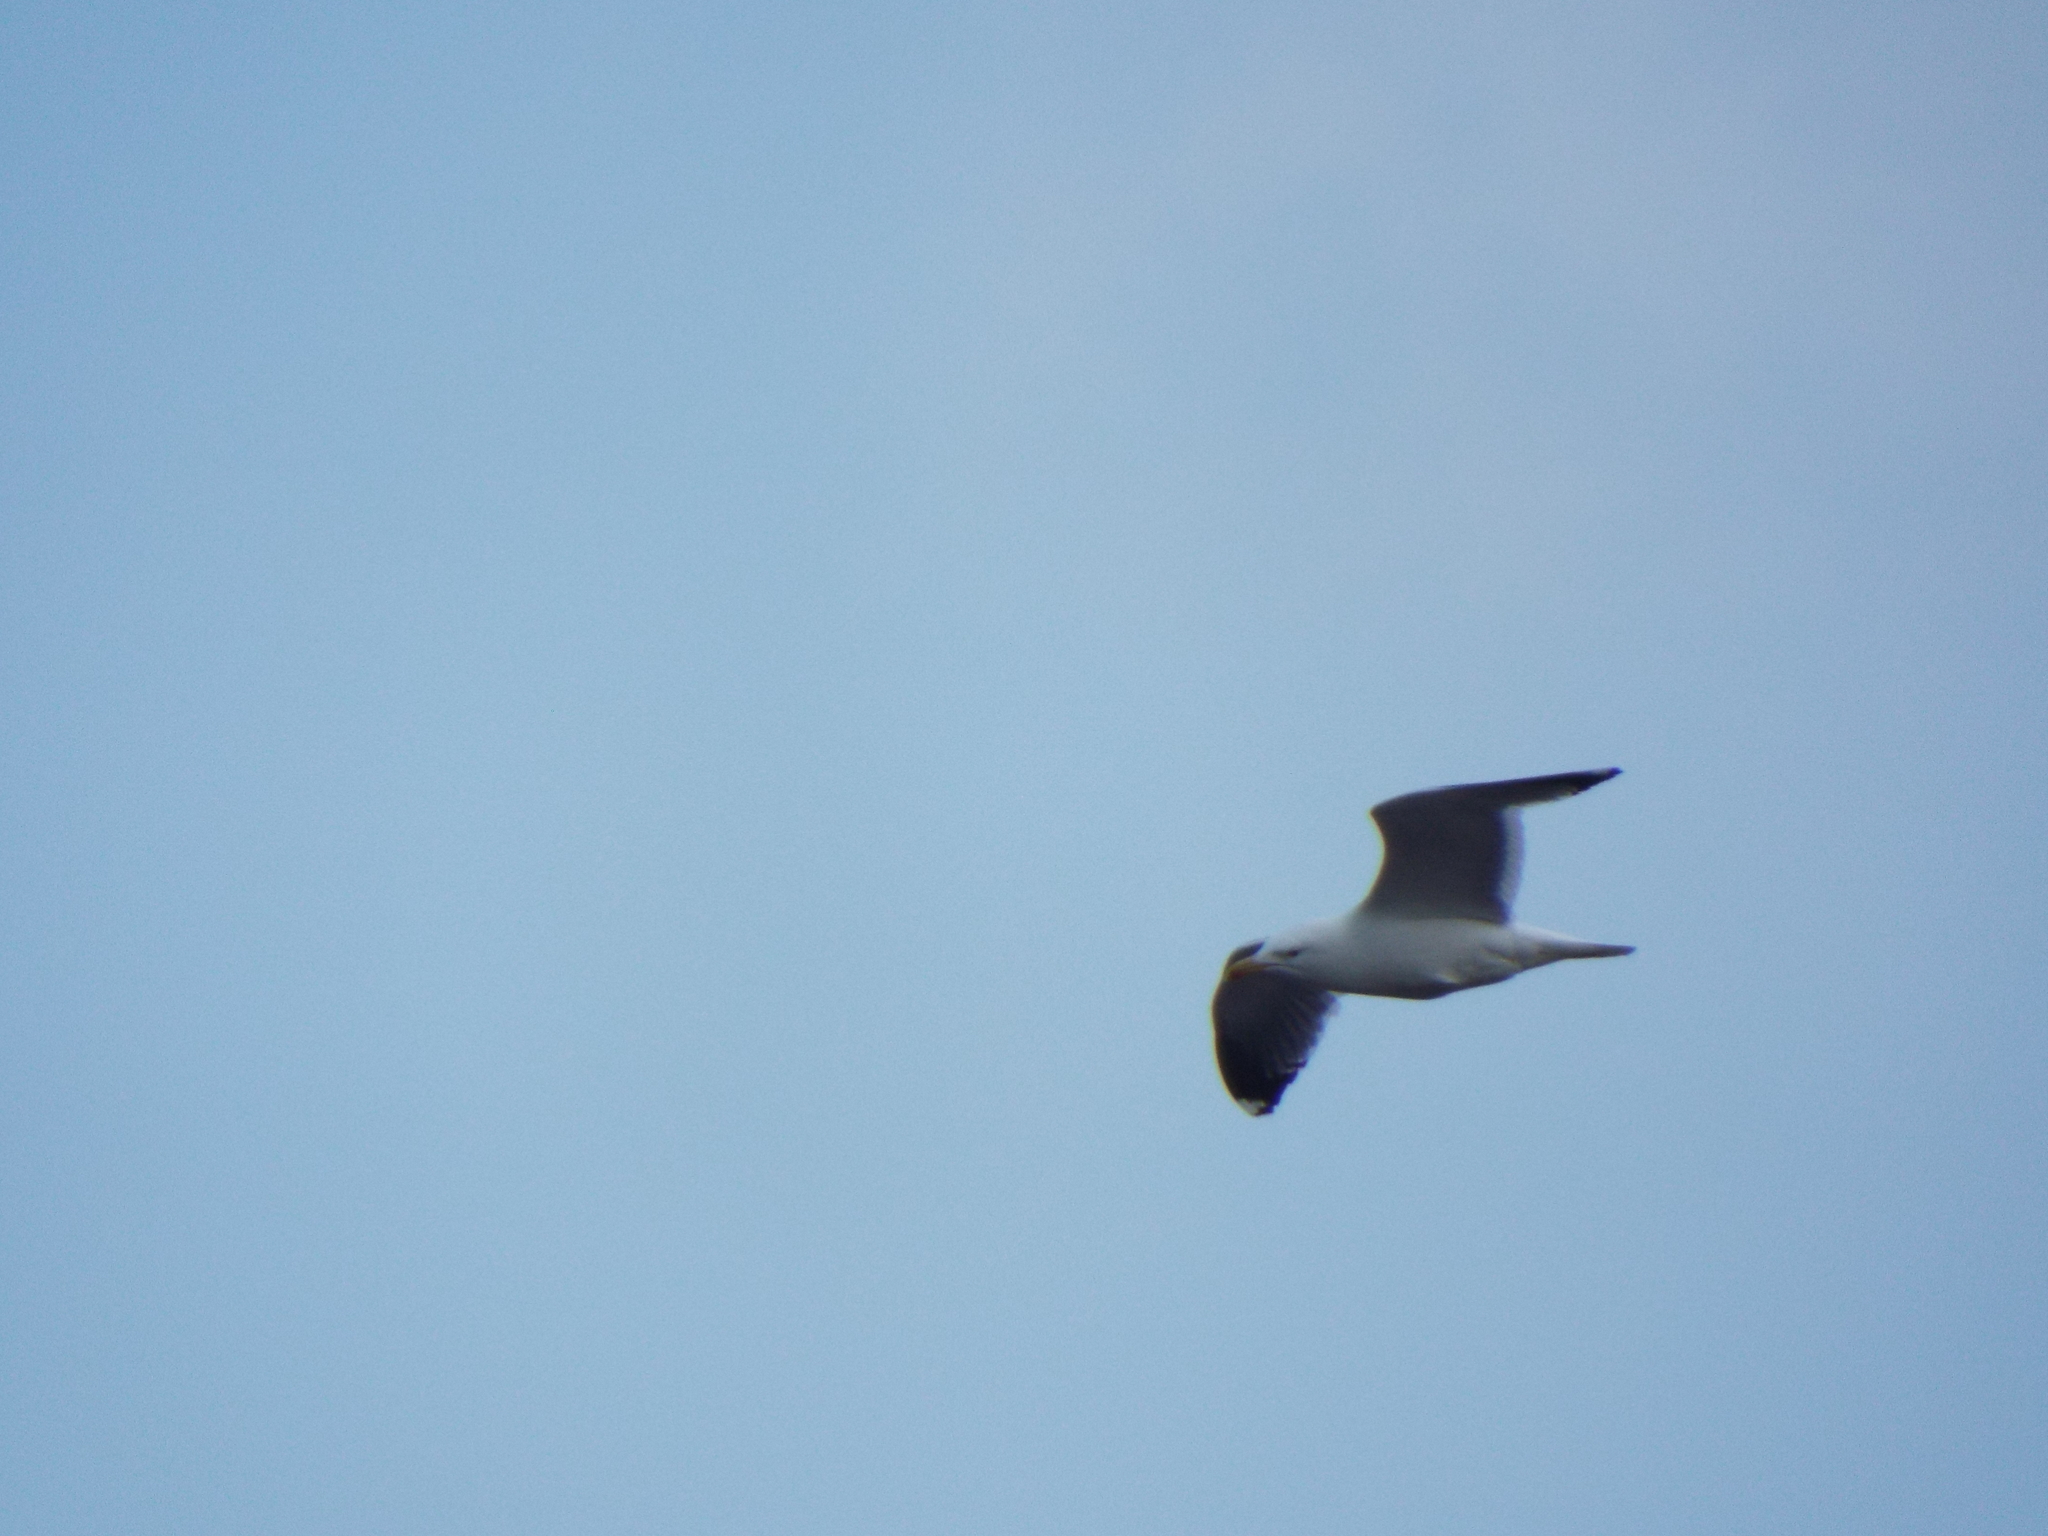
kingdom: Animalia
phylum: Chordata
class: Aves
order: Charadriiformes
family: Laridae
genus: Larus
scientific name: Larus marinus
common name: Great black-backed gull
